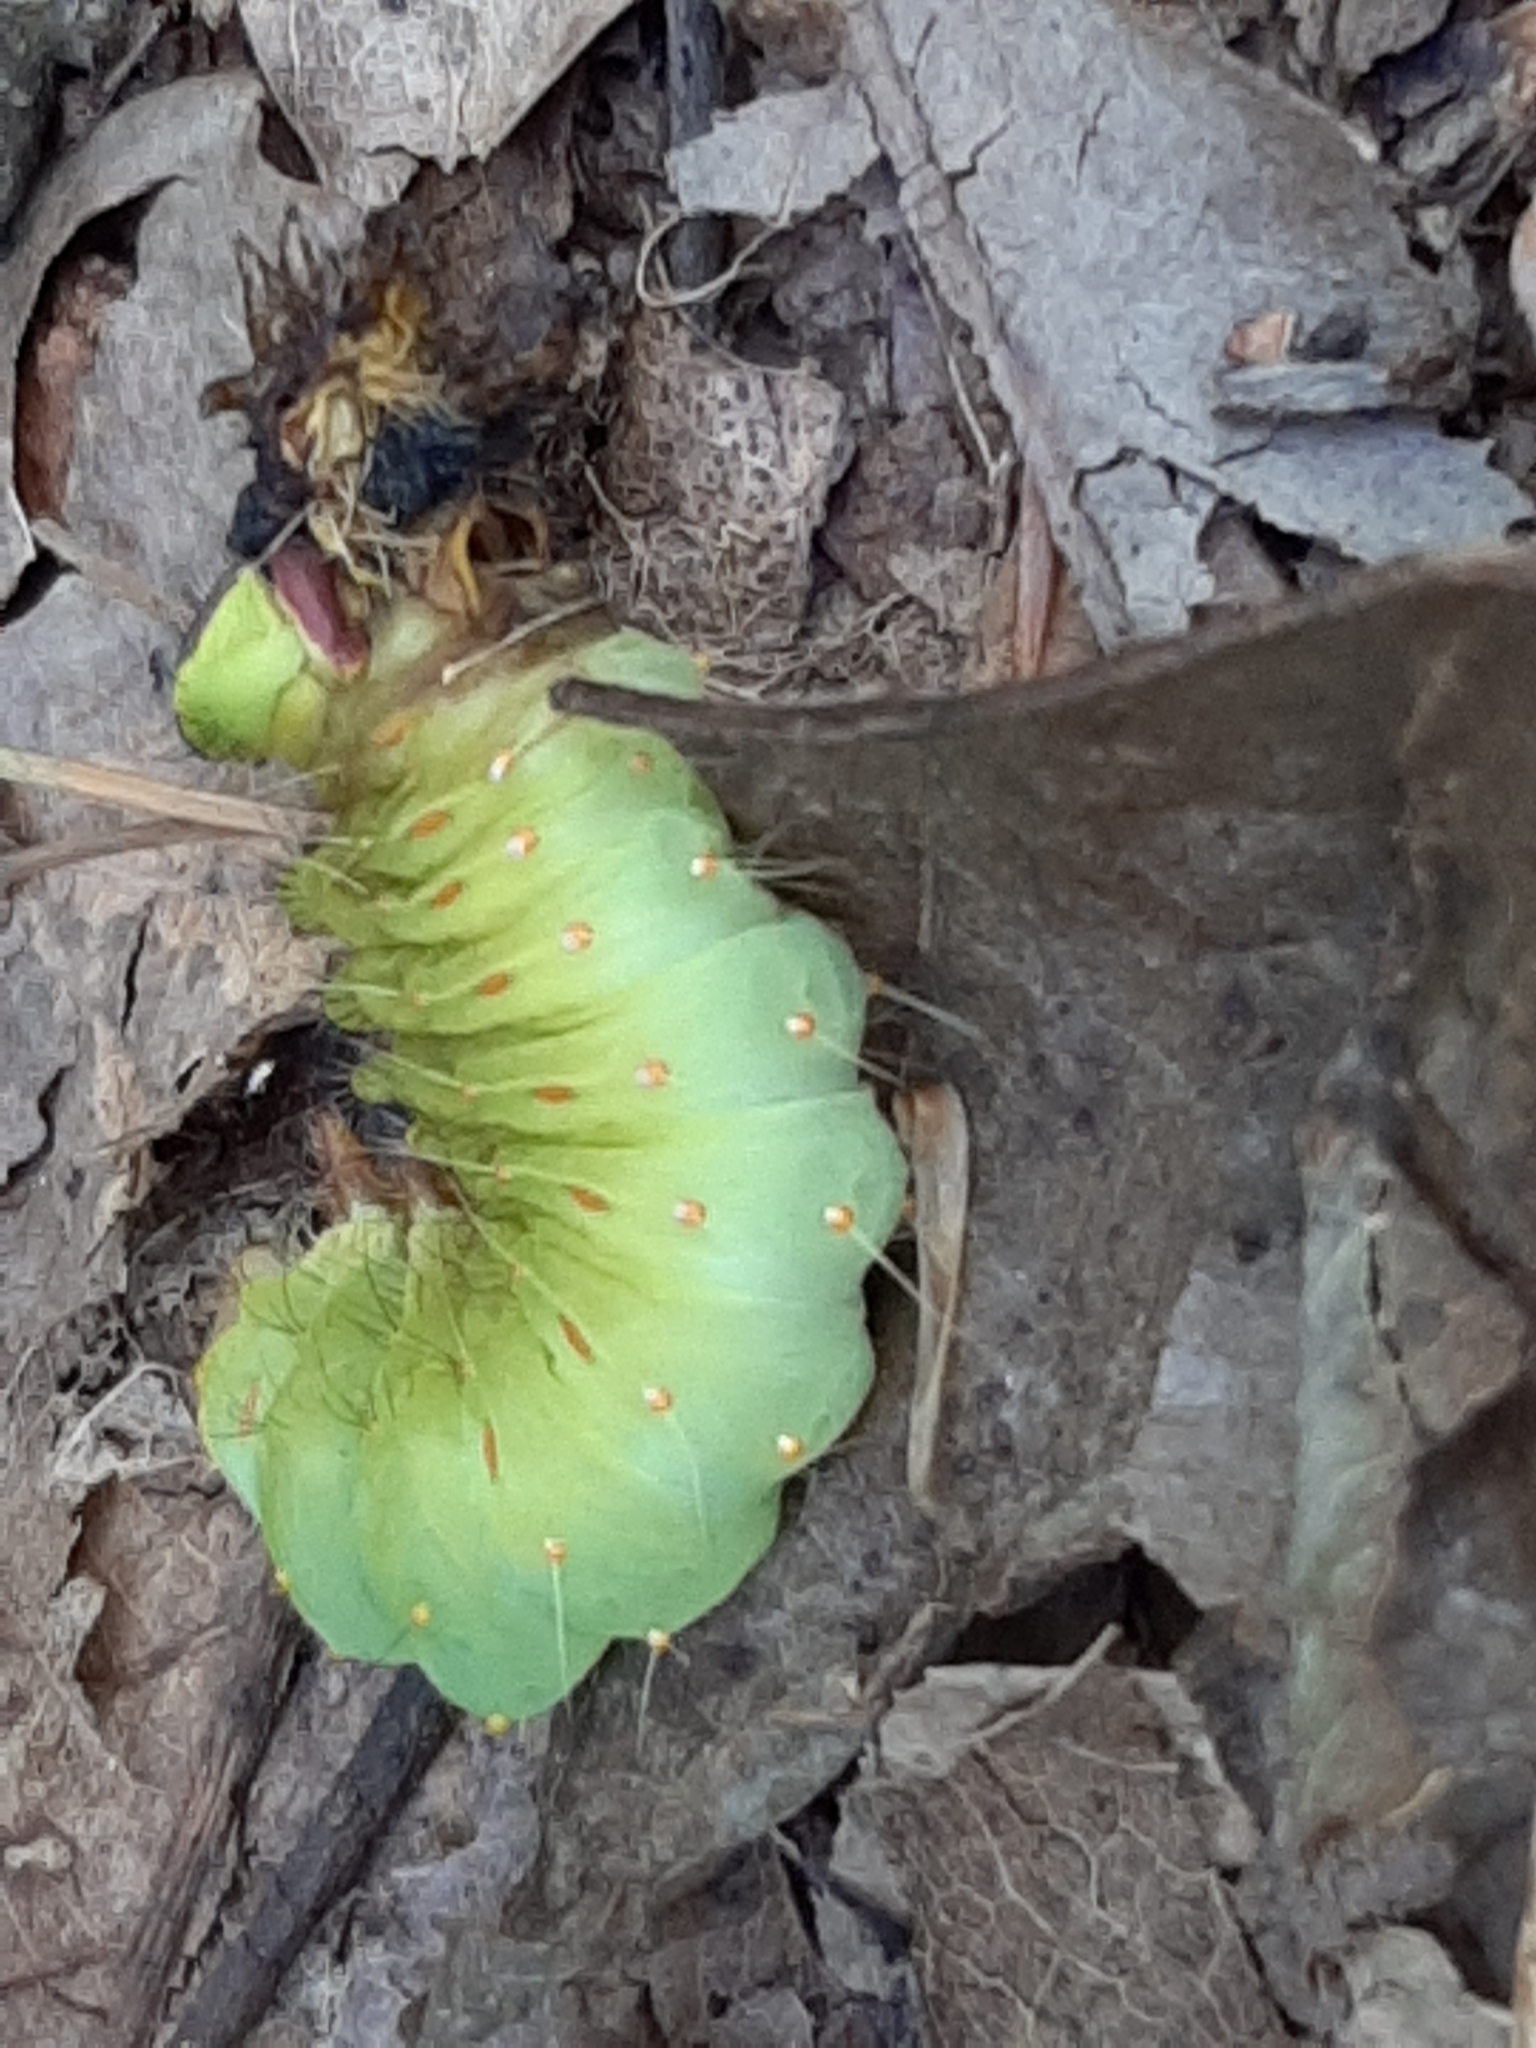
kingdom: Animalia
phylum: Arthropoda
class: Insecta
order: Lepidoptera
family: Saturniidae
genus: Antheraea
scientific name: Antheraea polyphemus
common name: Polyphemus moth
